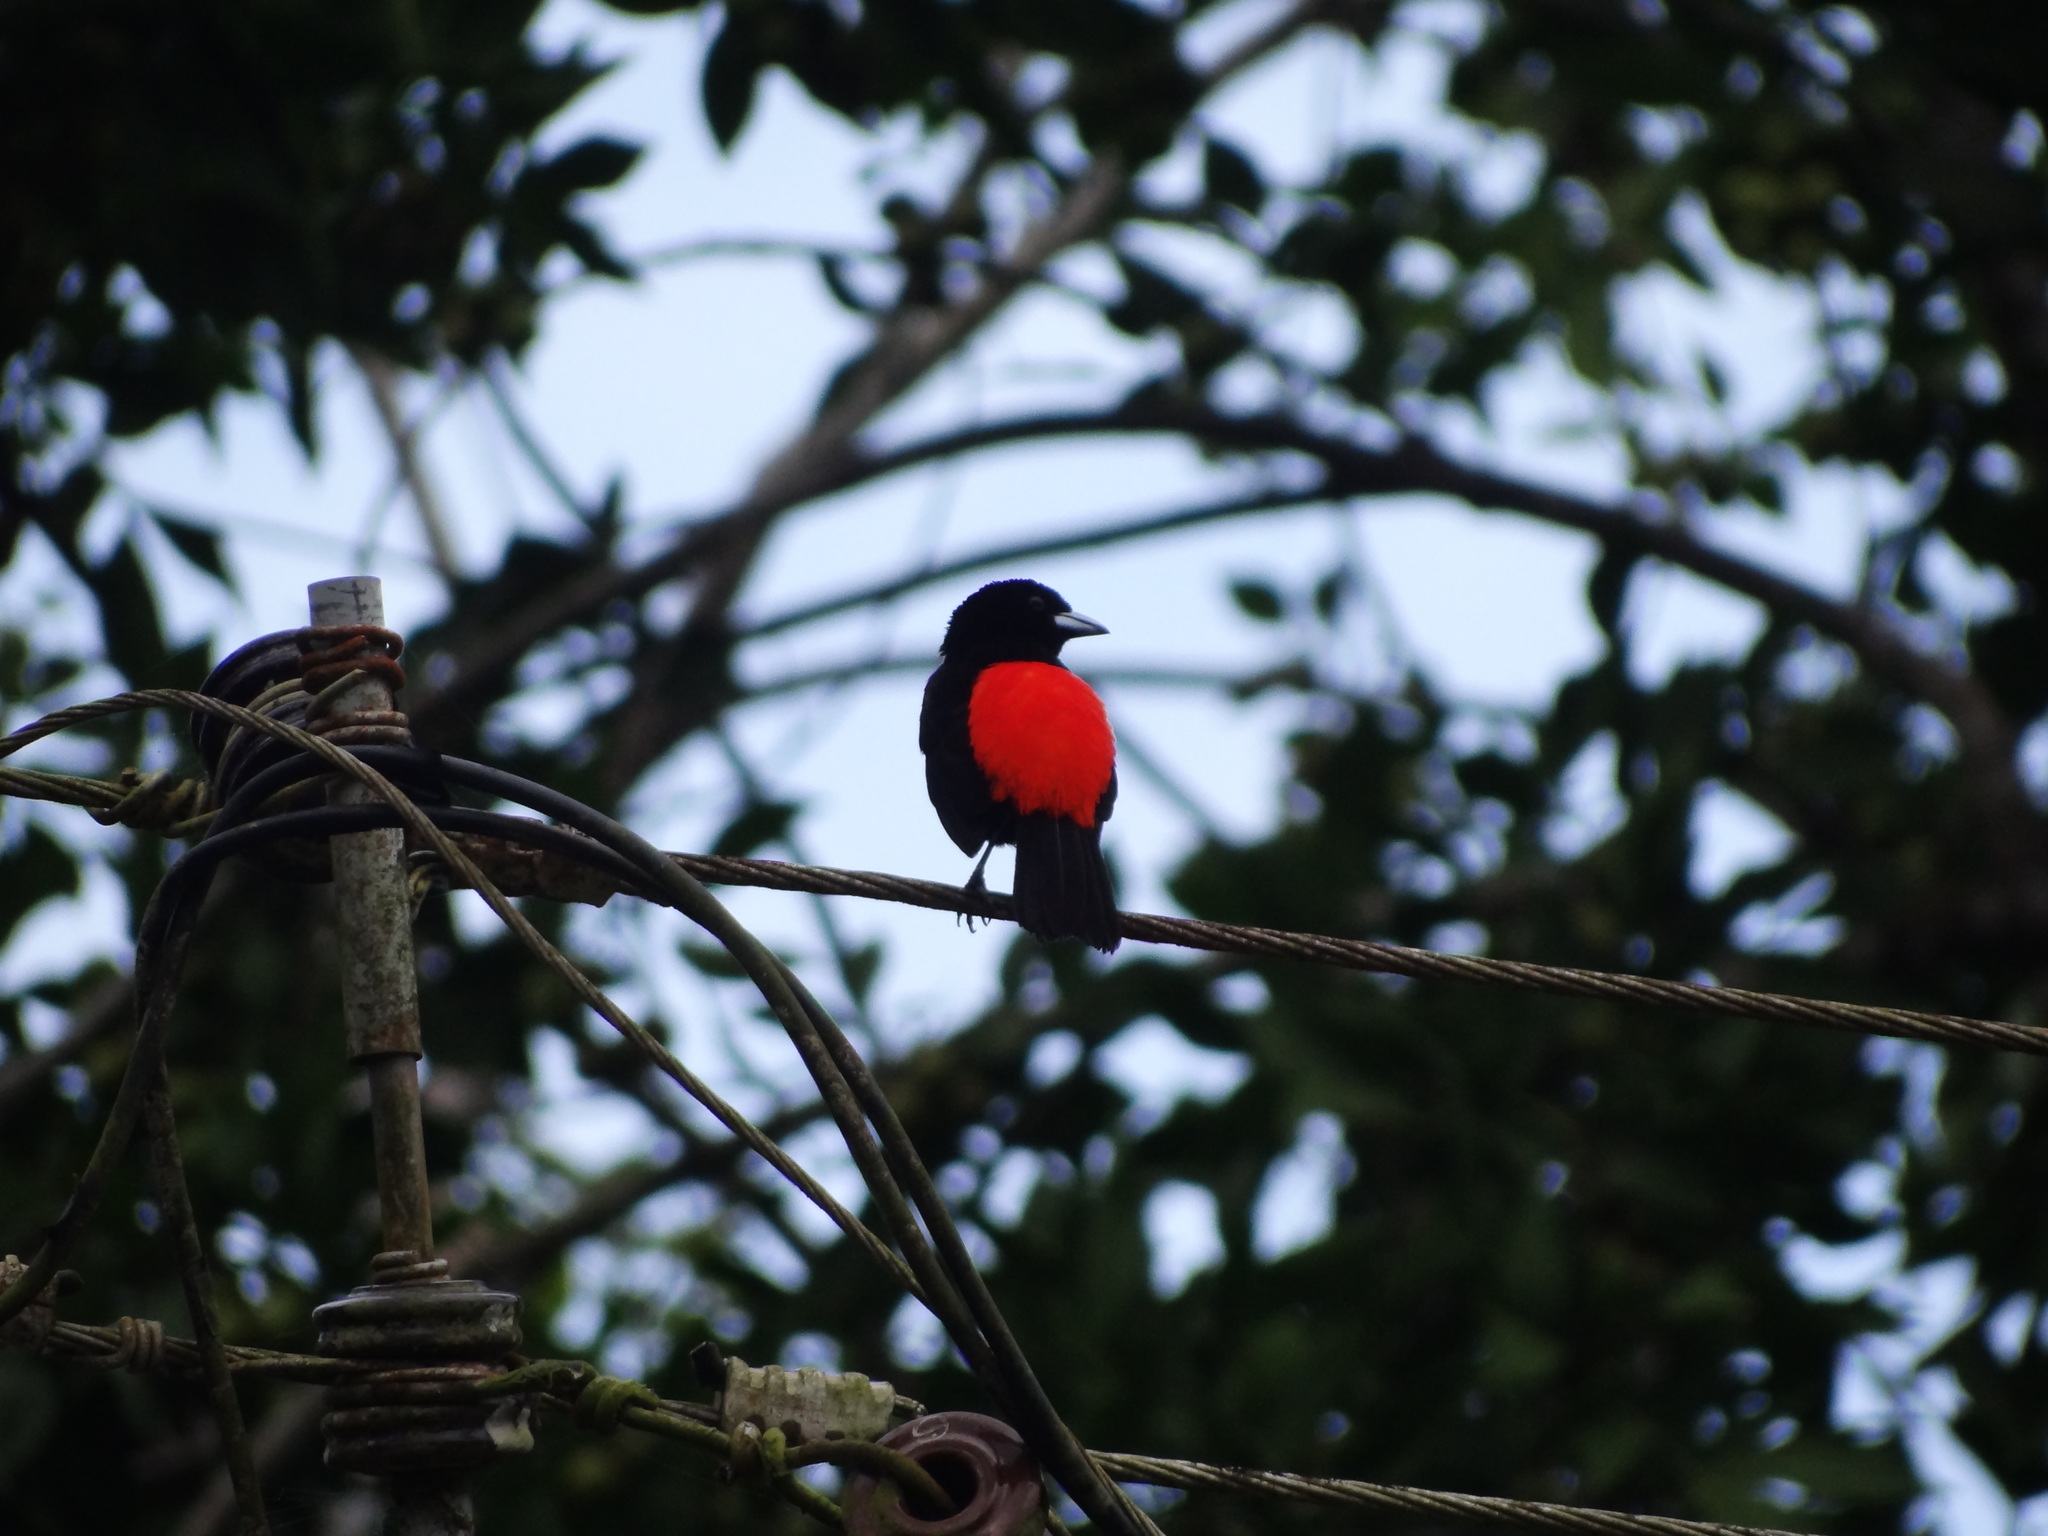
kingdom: Animalia
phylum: Chordata
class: Aves
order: Passeriformes
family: Thraupidae
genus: Ramphocelus
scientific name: Ramphocelus passerinii
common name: Passerini's tanager
